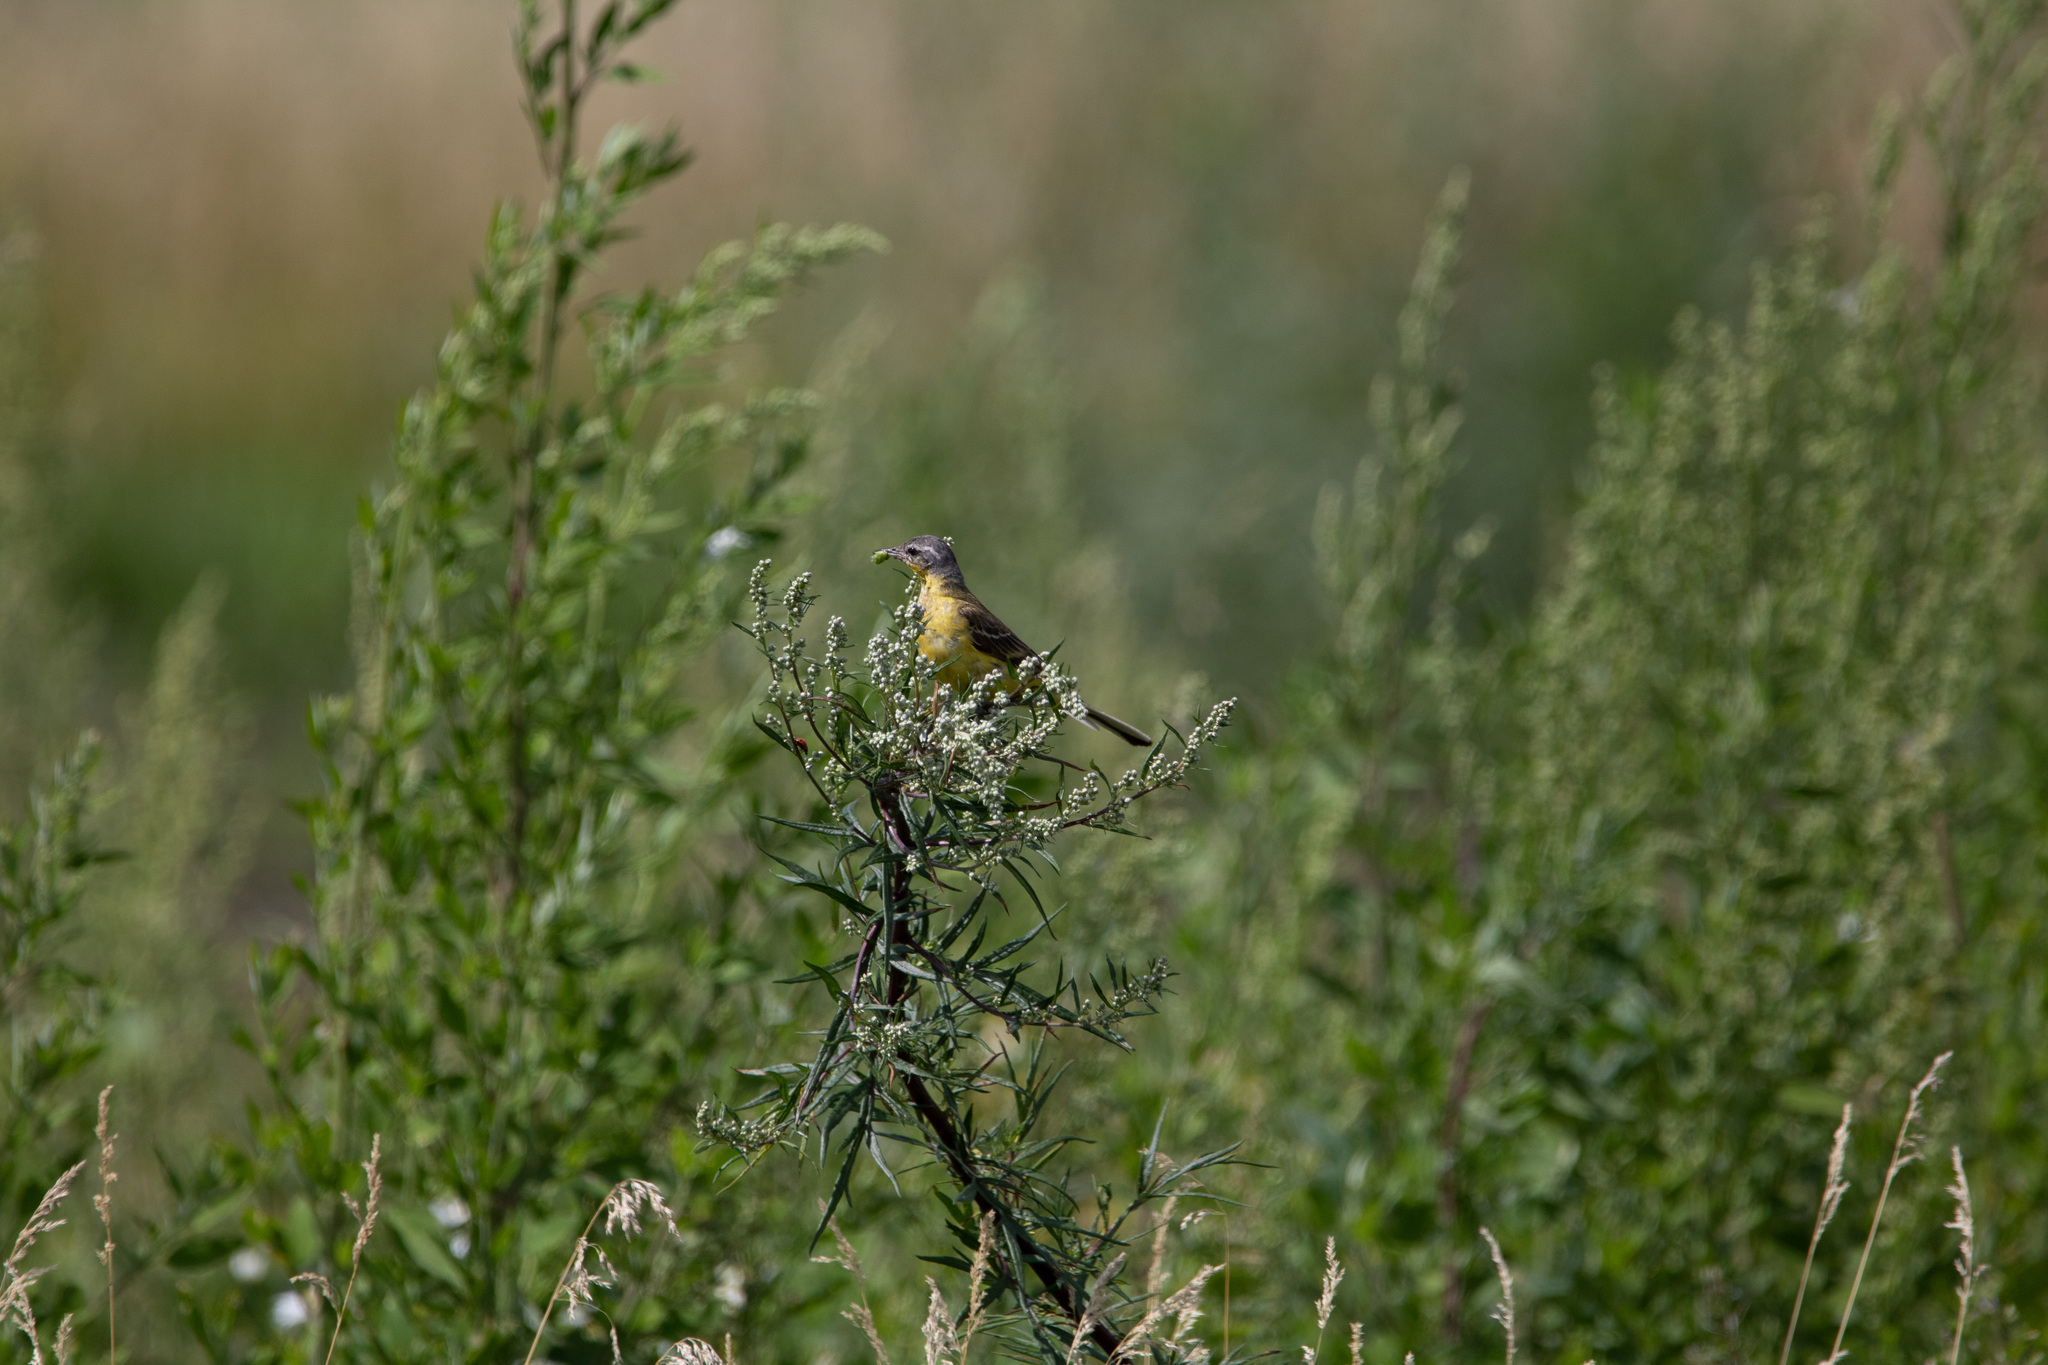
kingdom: Animalia
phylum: Chordata
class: Aves
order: Passeriformes
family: Motacillidae
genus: Motacilla
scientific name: Motacilla flava
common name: Western yellow wagtail
